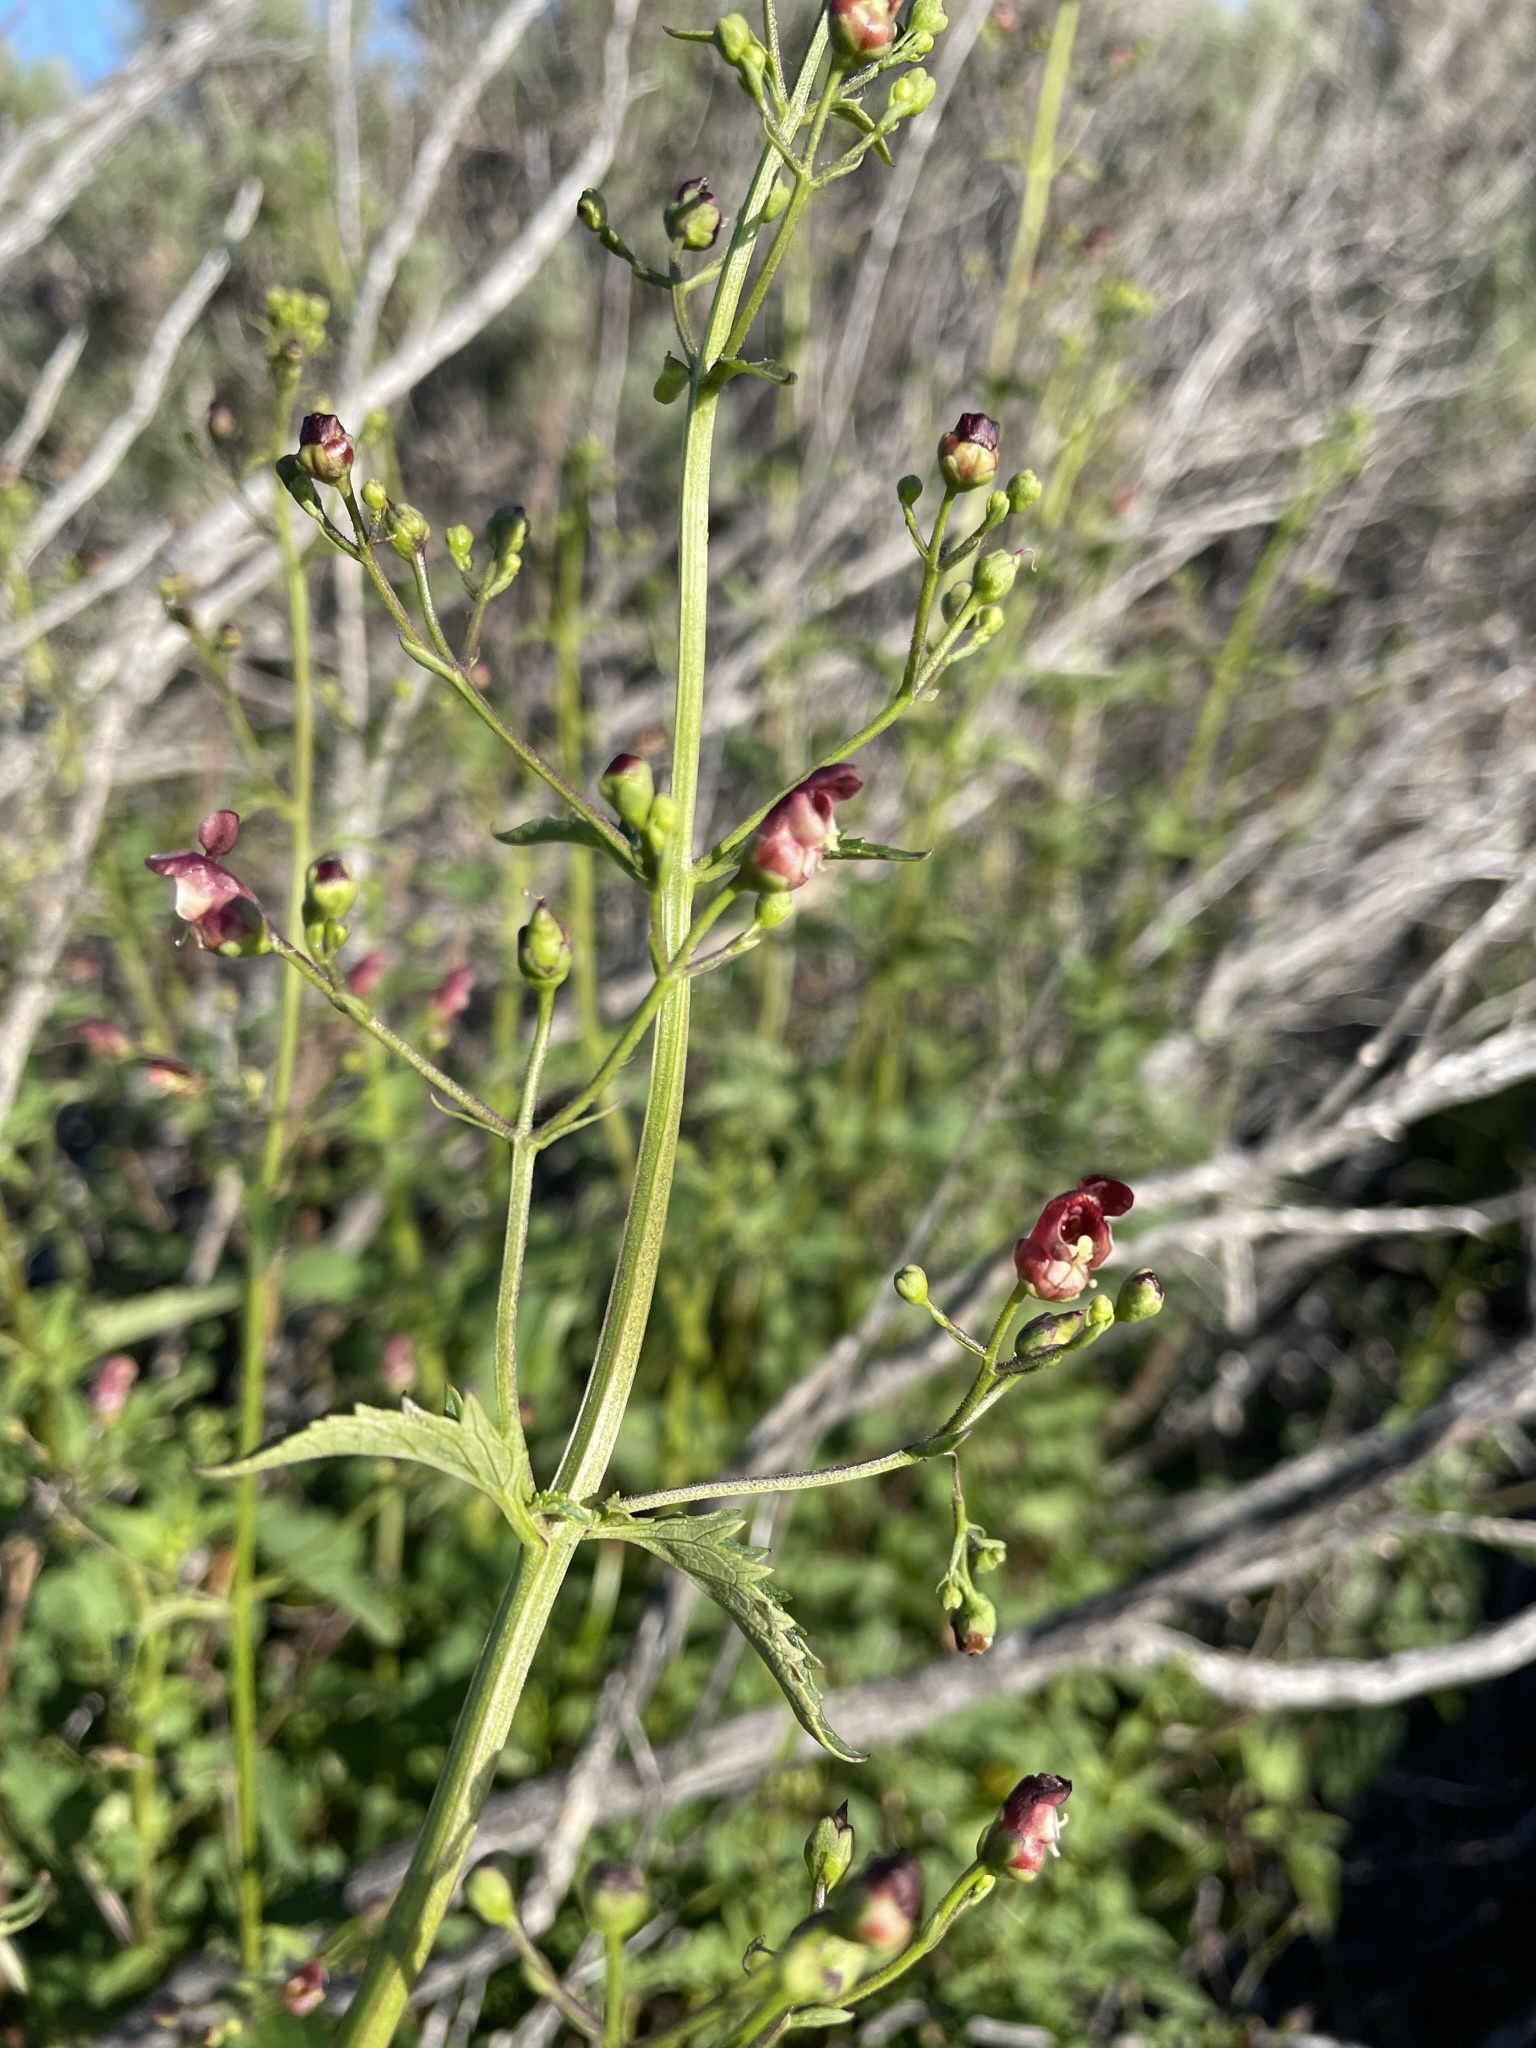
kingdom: Plantae
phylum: Tracheophyta
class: Magnoliopsida
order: Lamiales
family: Scrophulariaceae
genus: Scrophularia
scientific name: Scrophularia californica
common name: California figwort
